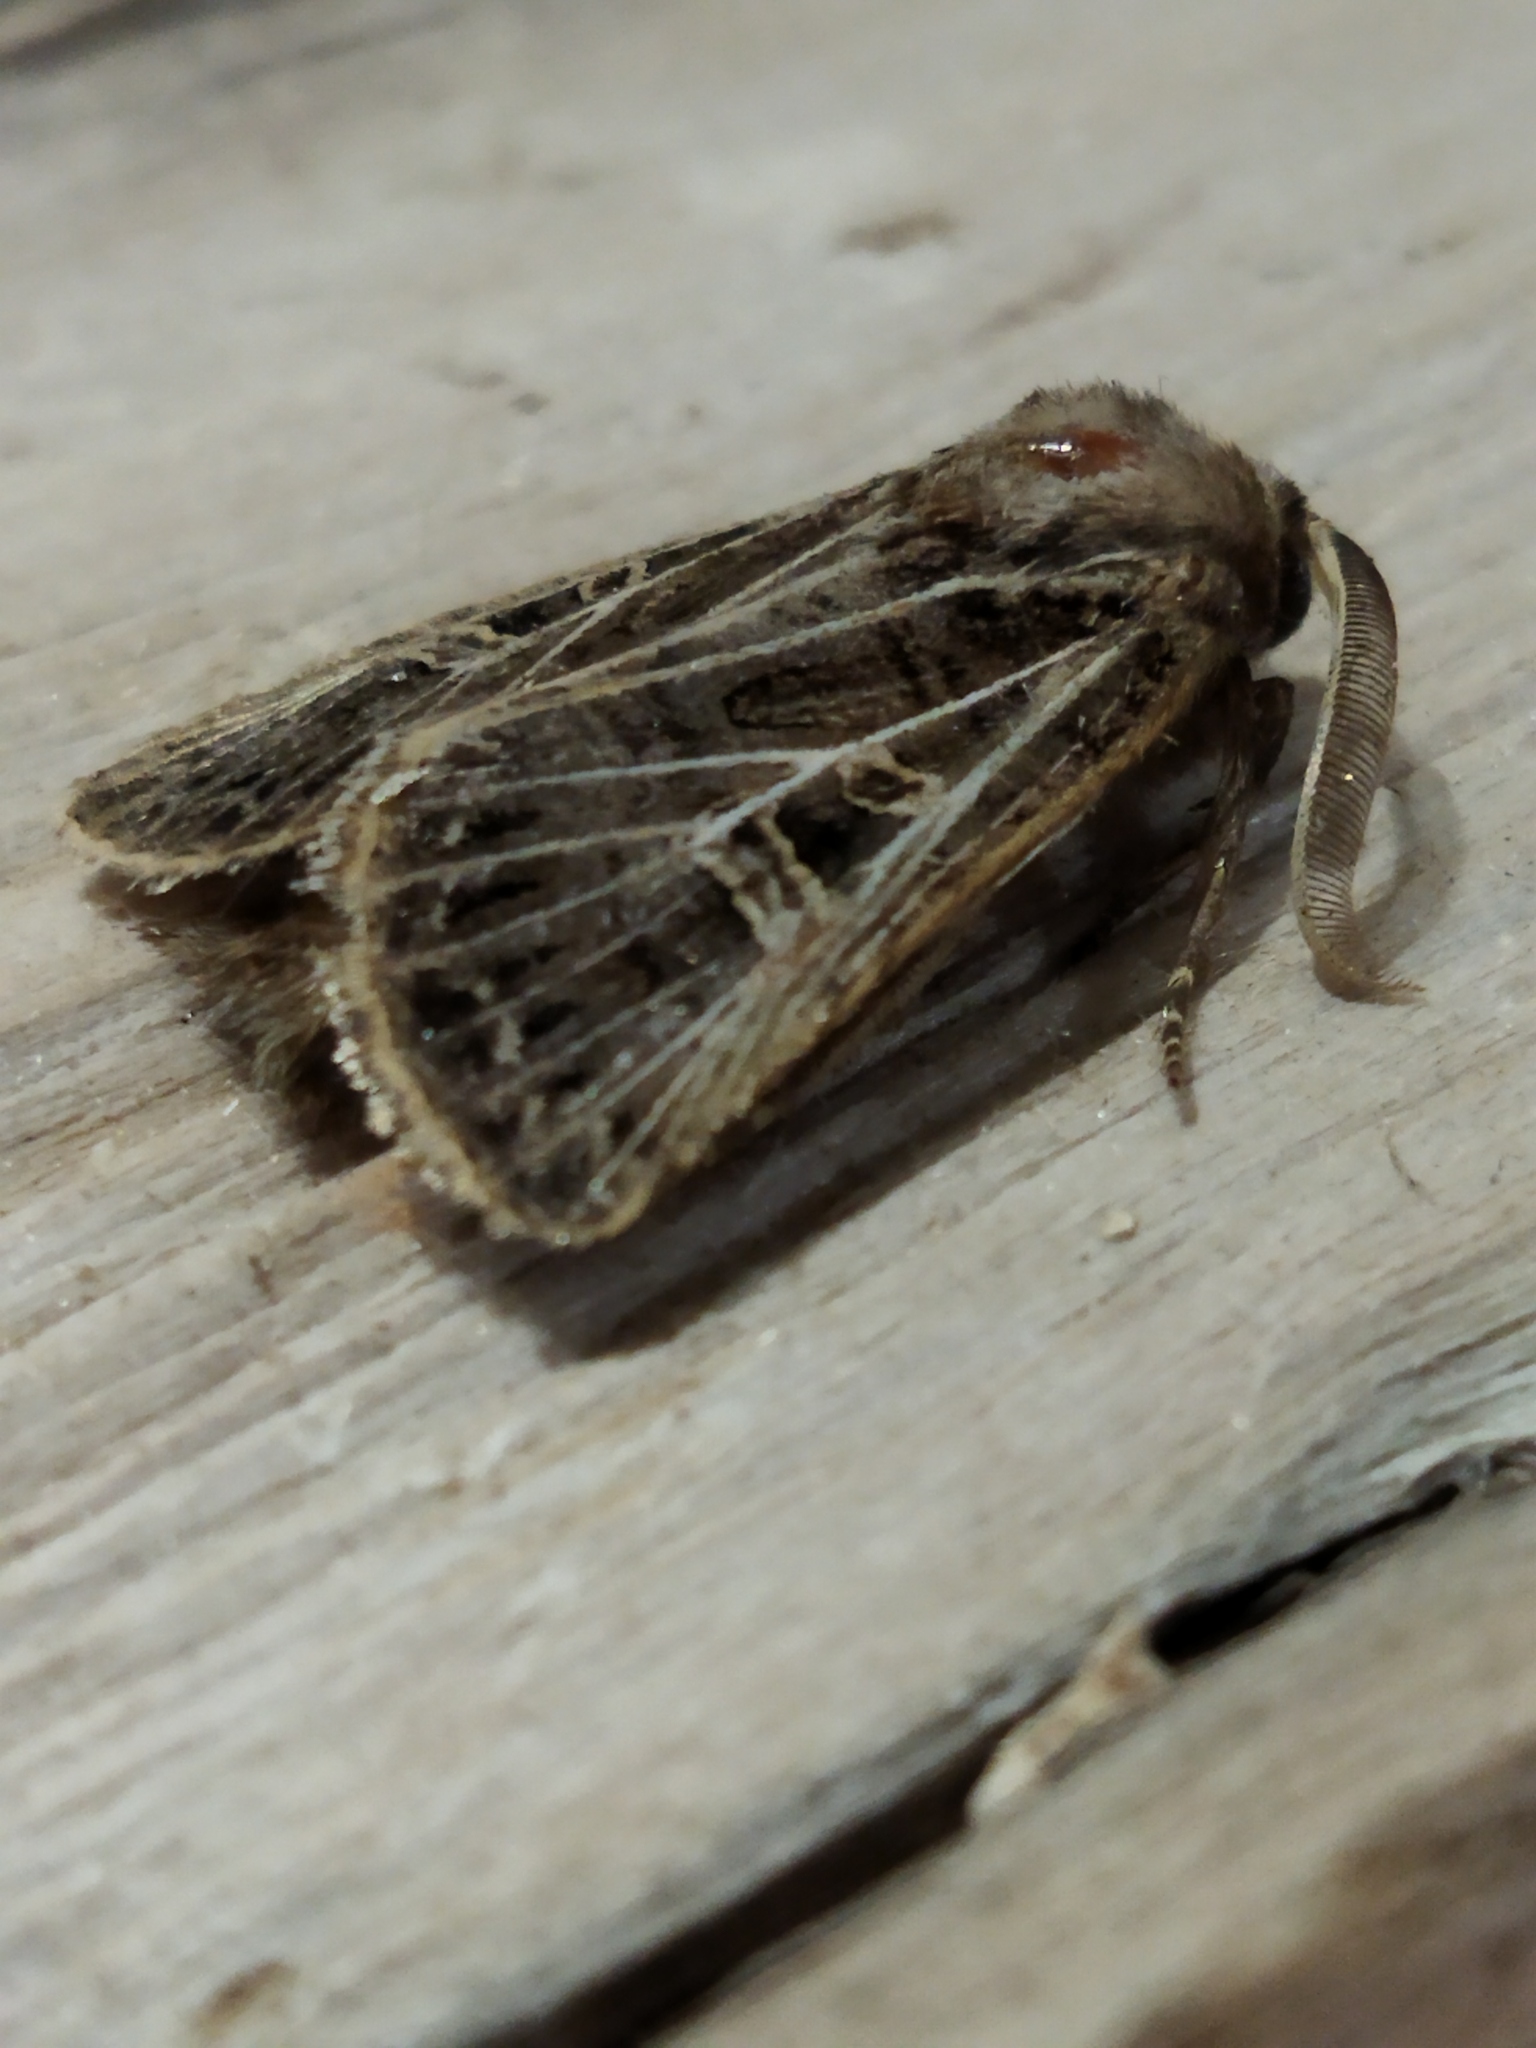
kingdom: Animalia
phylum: Arthropoda
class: Insecta
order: Lepidoptera
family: Noctuidae
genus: Tholera
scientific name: Tholera decimalis
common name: Feathered gothic
